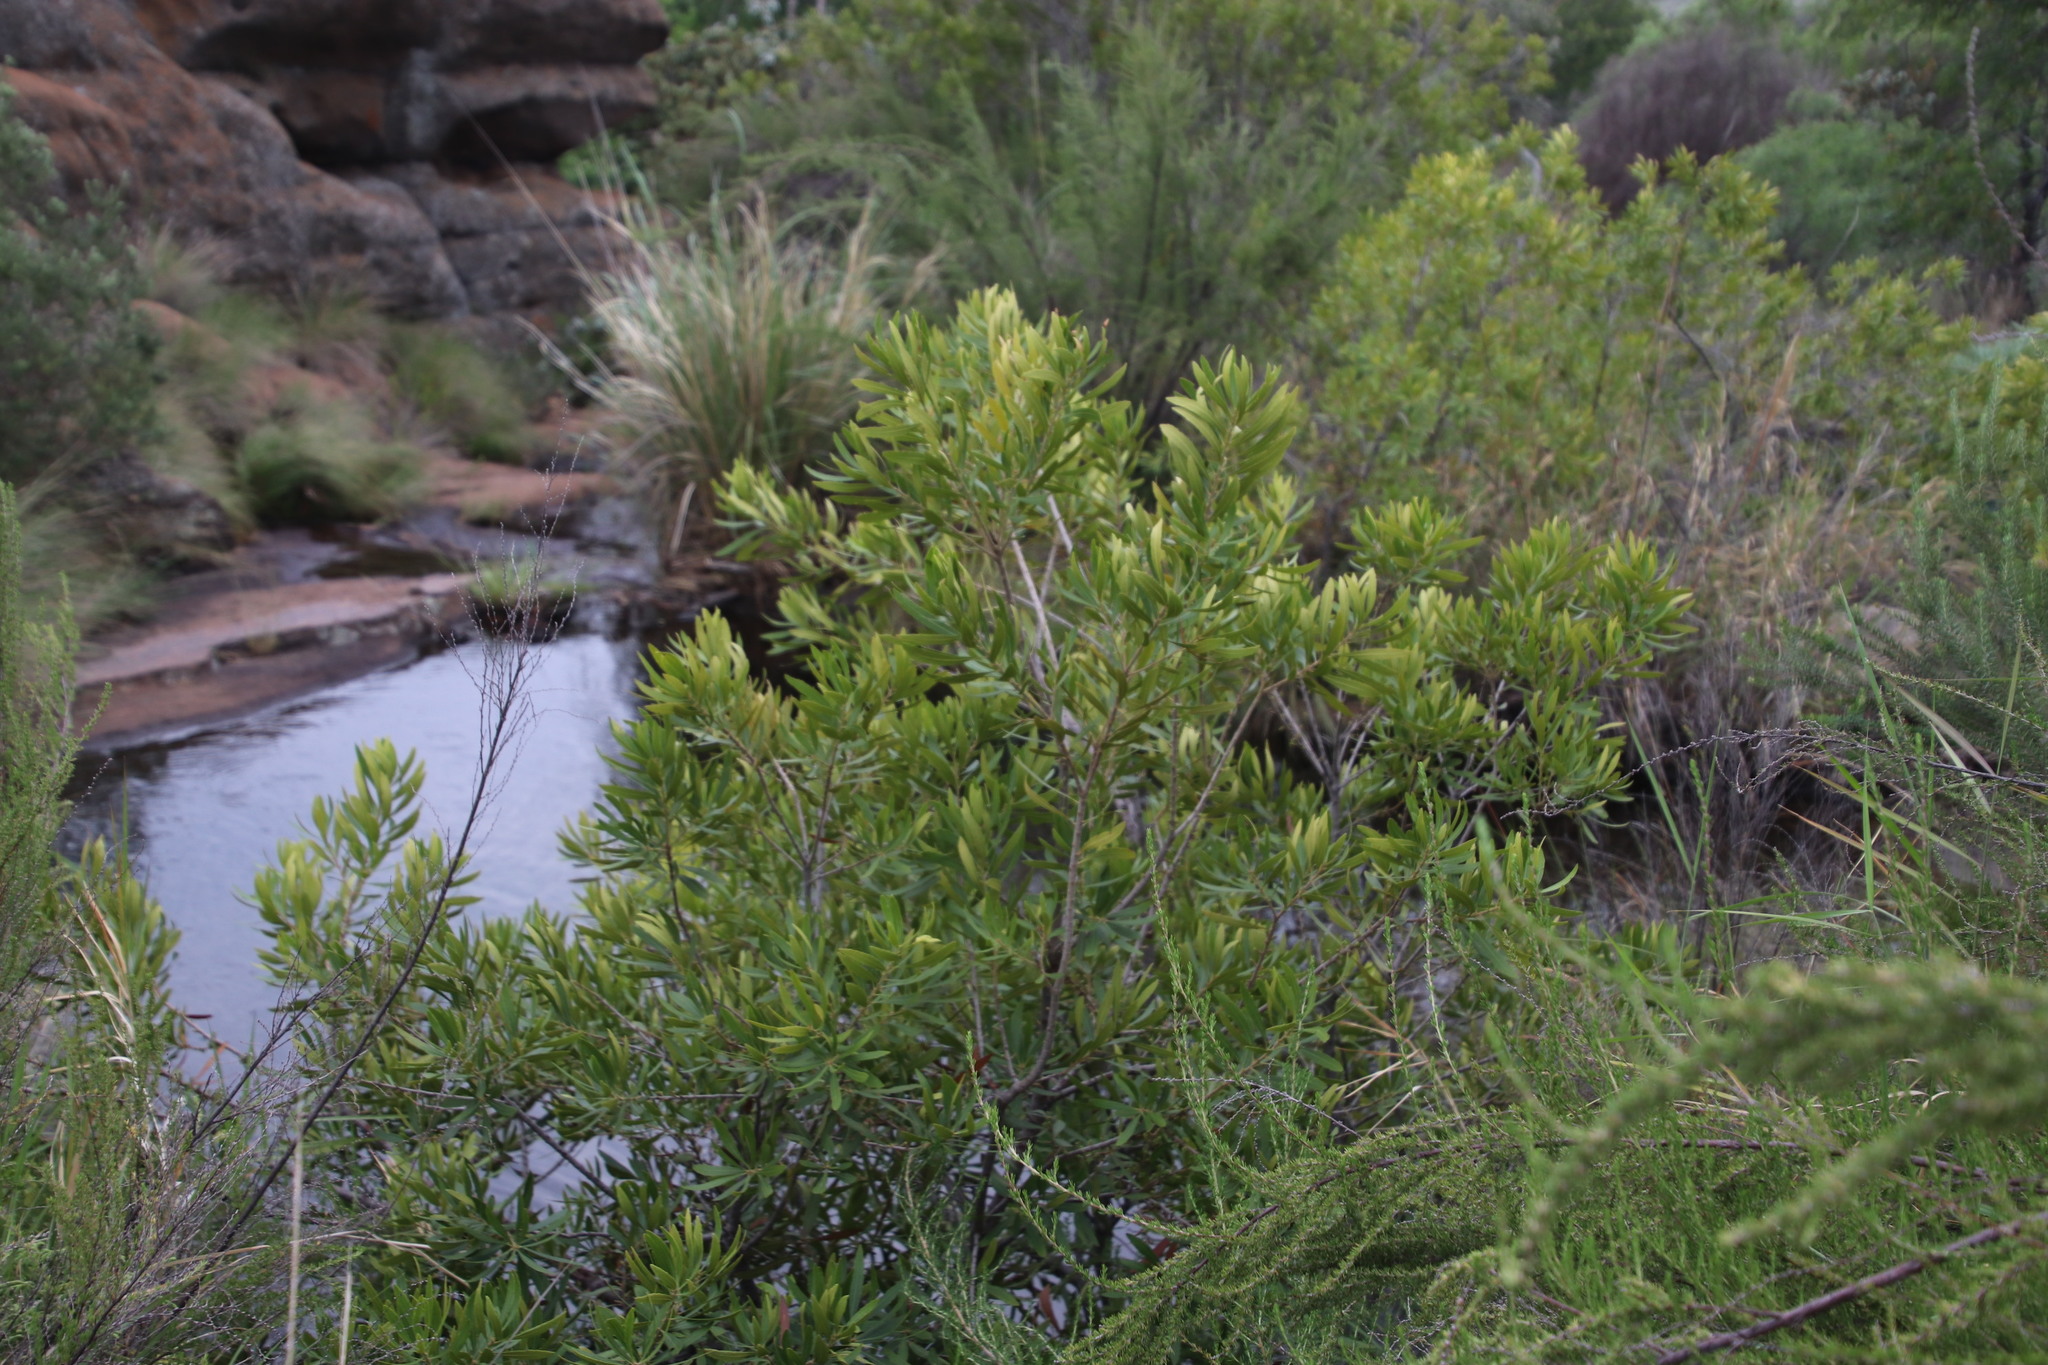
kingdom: Plantae
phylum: Tracheophyta
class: Magnoliopsida
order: Fagales
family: Myricaceae
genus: Morella
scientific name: Morella serrata
